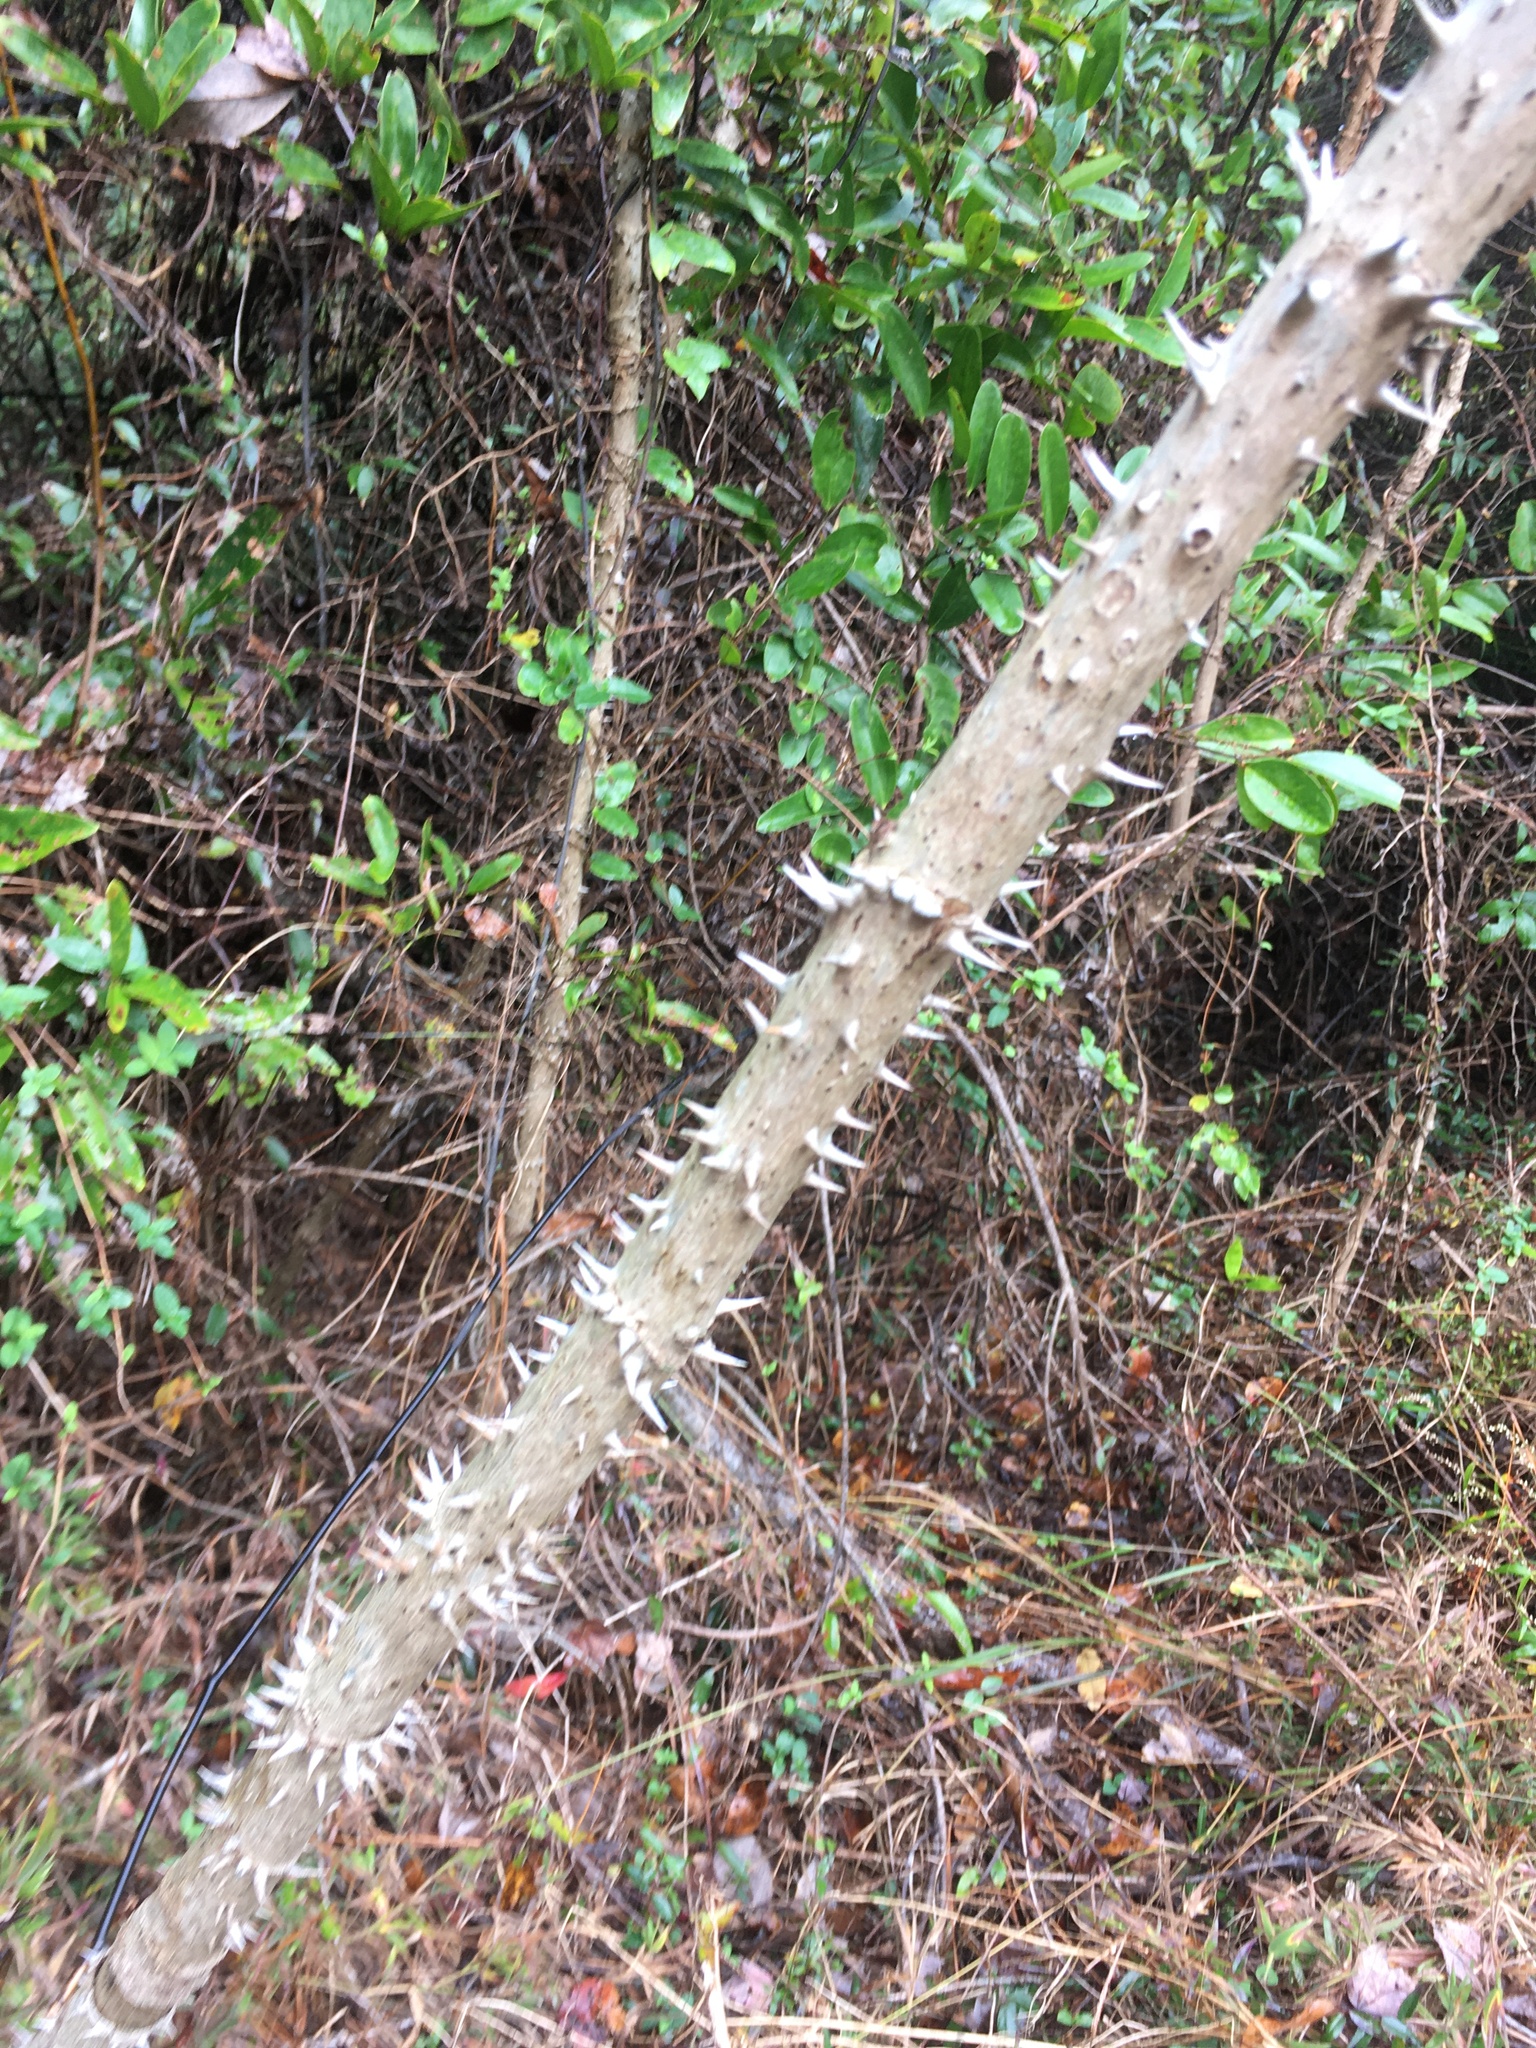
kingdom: Plantae
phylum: Tracheophyta
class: Magnoliopsida
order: Apiales
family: Araliaceae
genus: Aralia
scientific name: Aralia spinosa
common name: Hercules'-club
